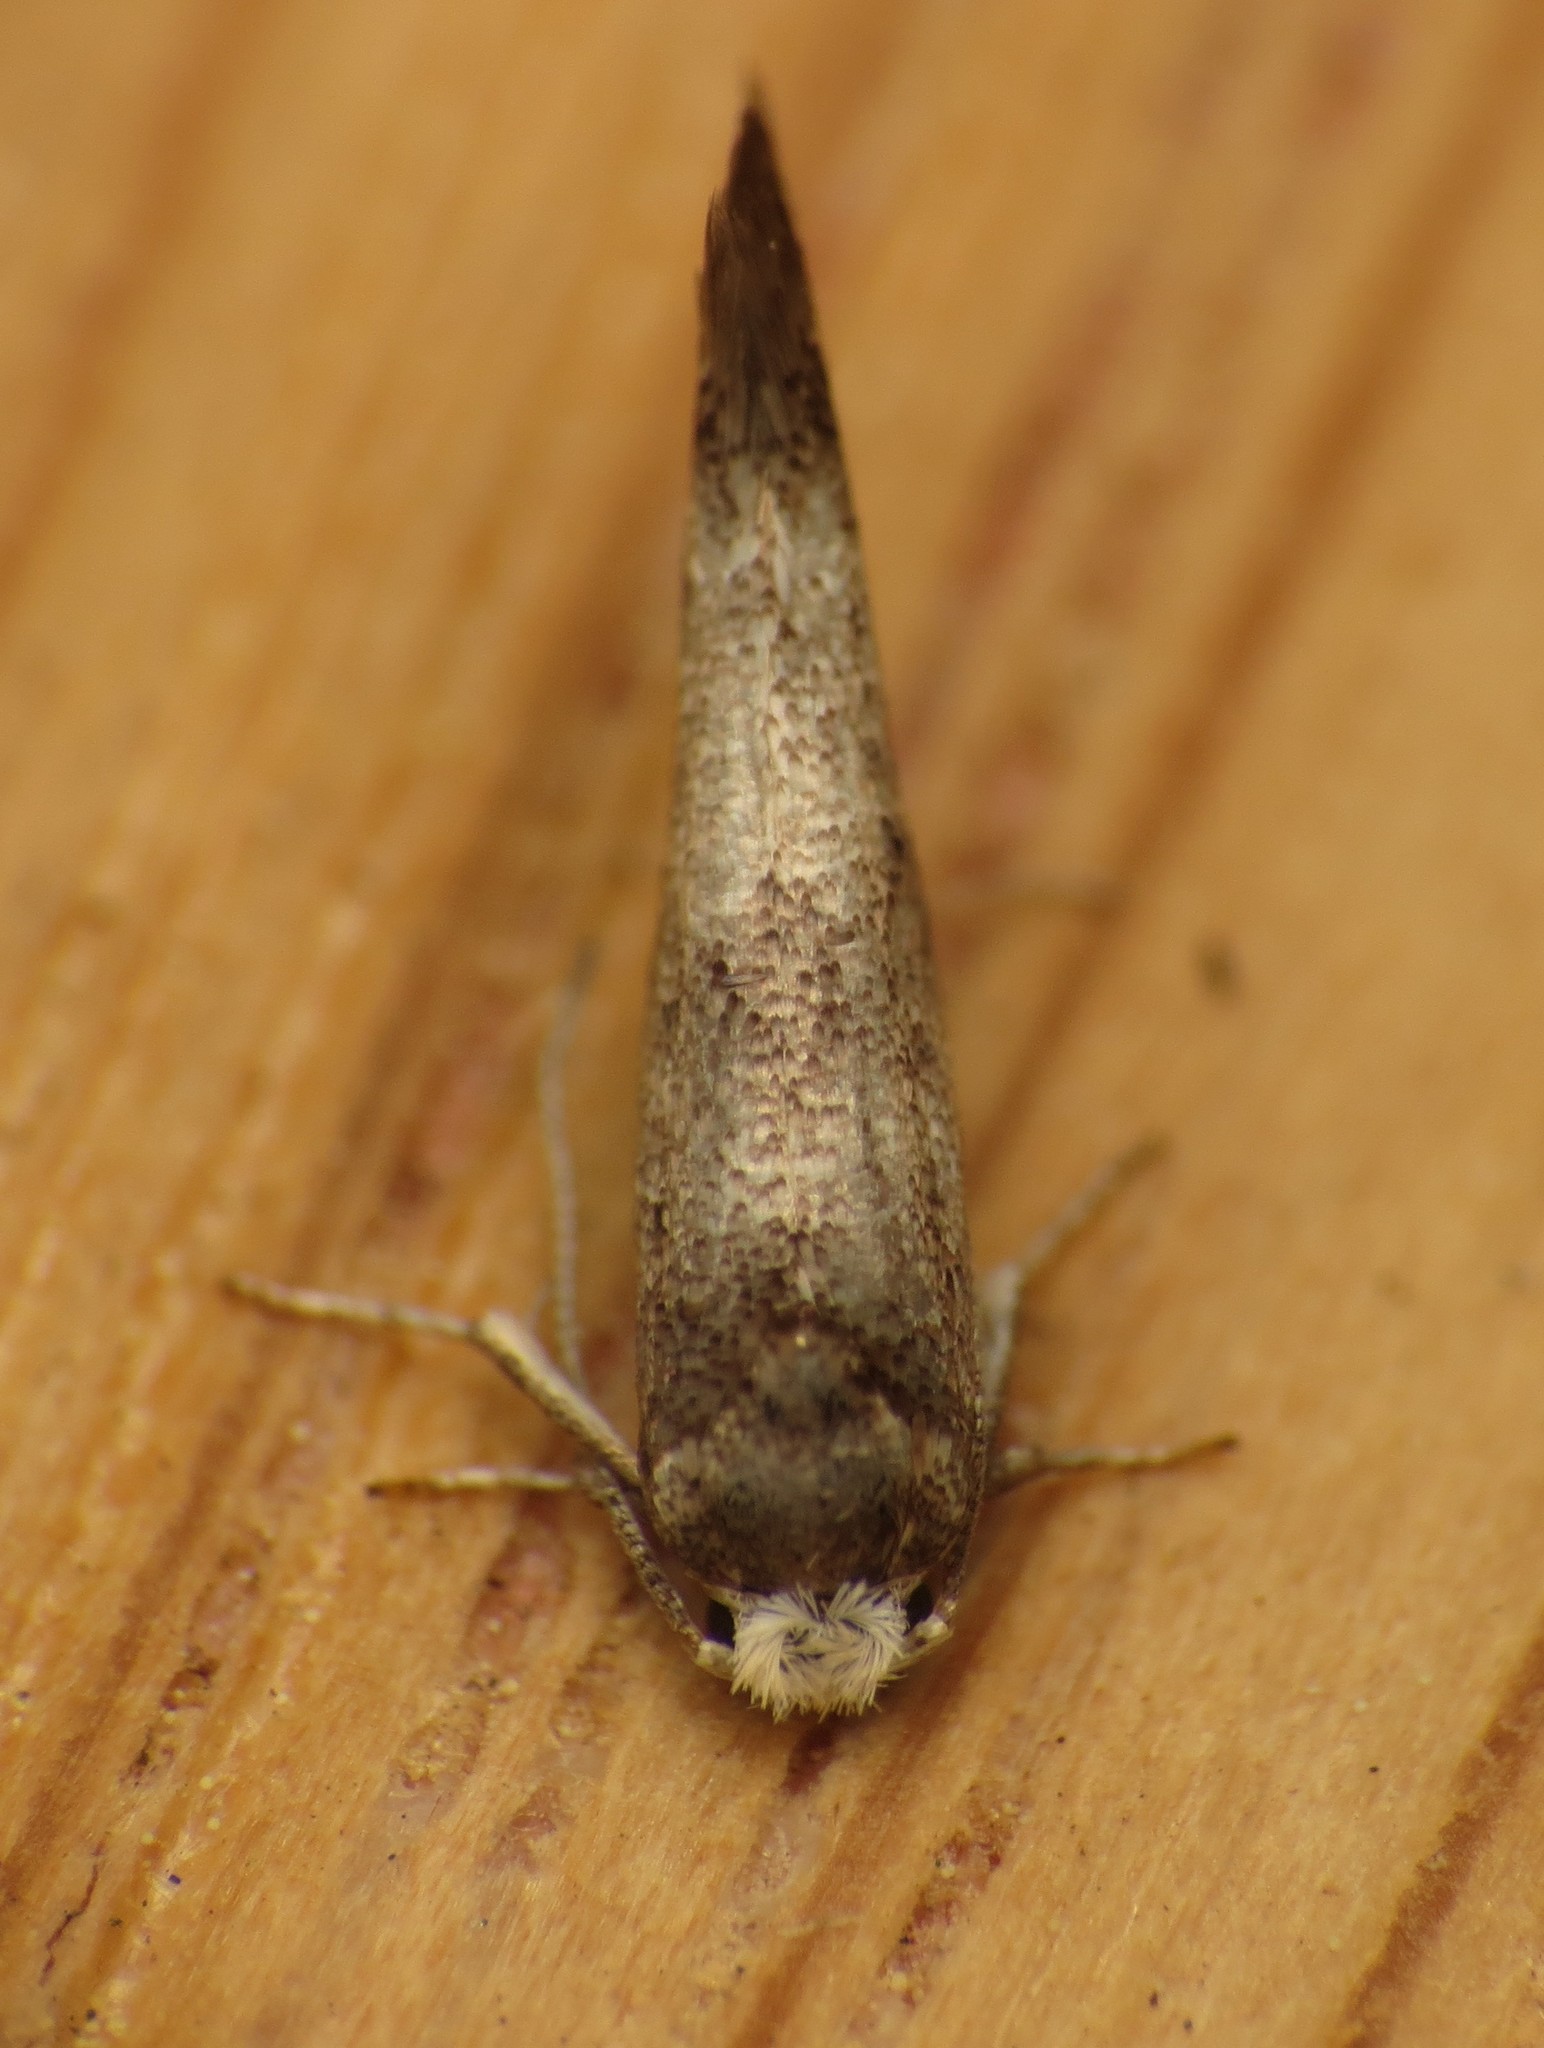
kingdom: Animalia
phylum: Arthropoda
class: Insecta
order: Lepidoptera
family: Yponomeutidae
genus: Swammerdamia
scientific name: Swammerdamia
